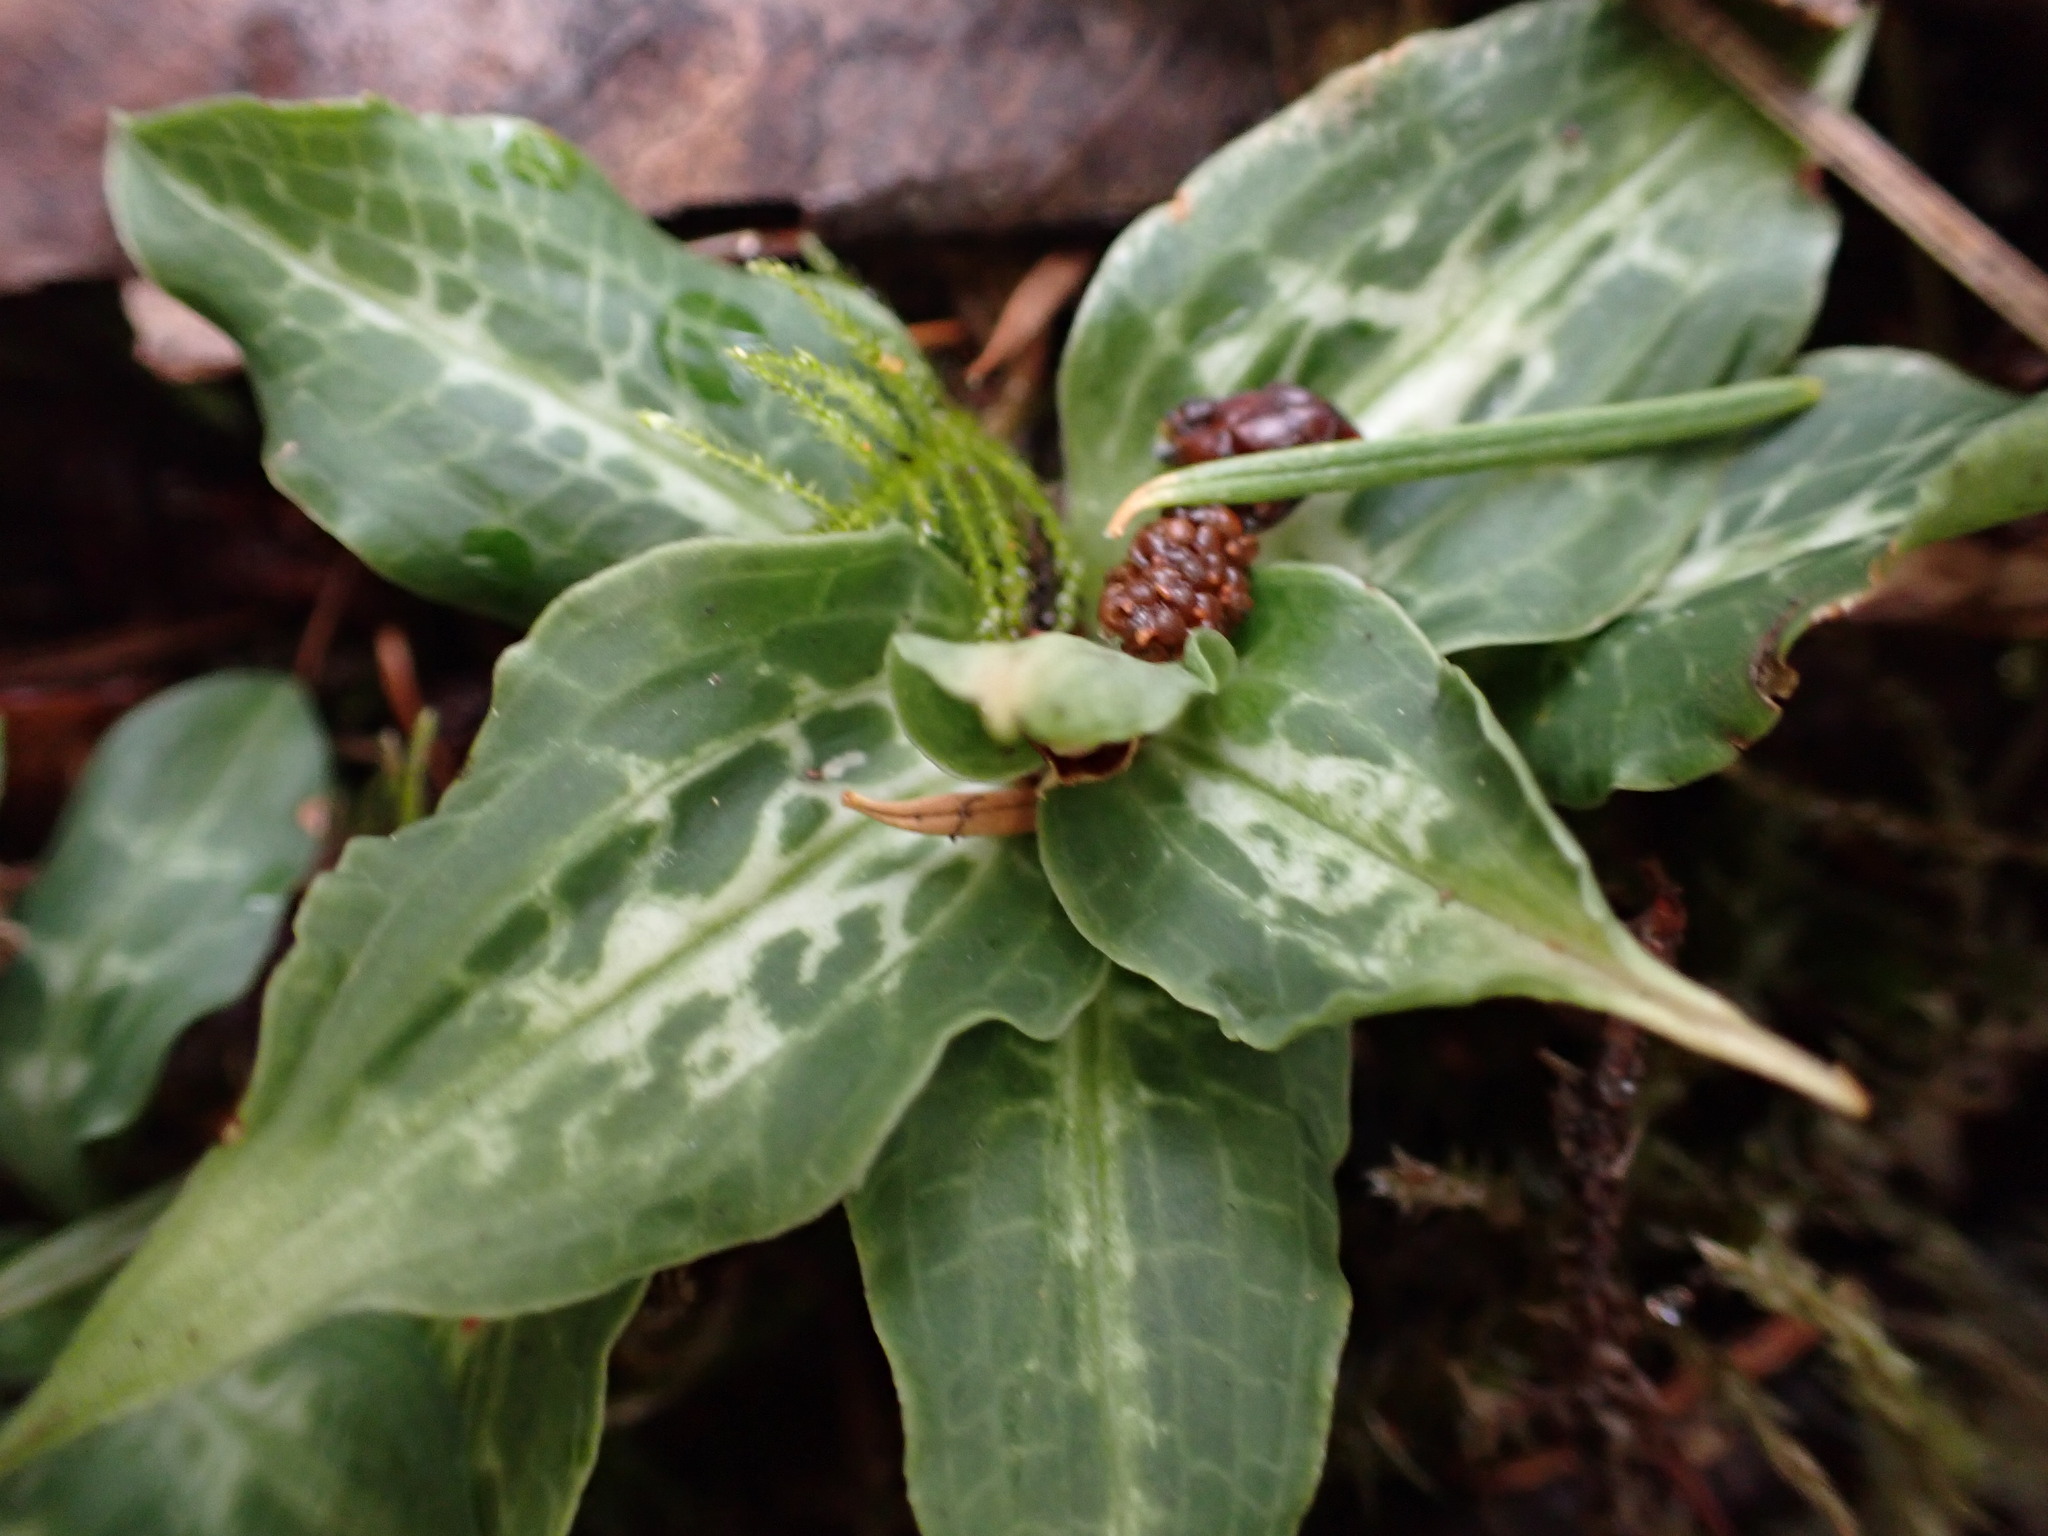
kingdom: Plantae
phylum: Tracheophyta
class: Liliopsida
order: Asparagales
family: Orchidaceae
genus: Goodyera
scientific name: Goodyera oblongifolia
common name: Giant rattlesnake-plantain
